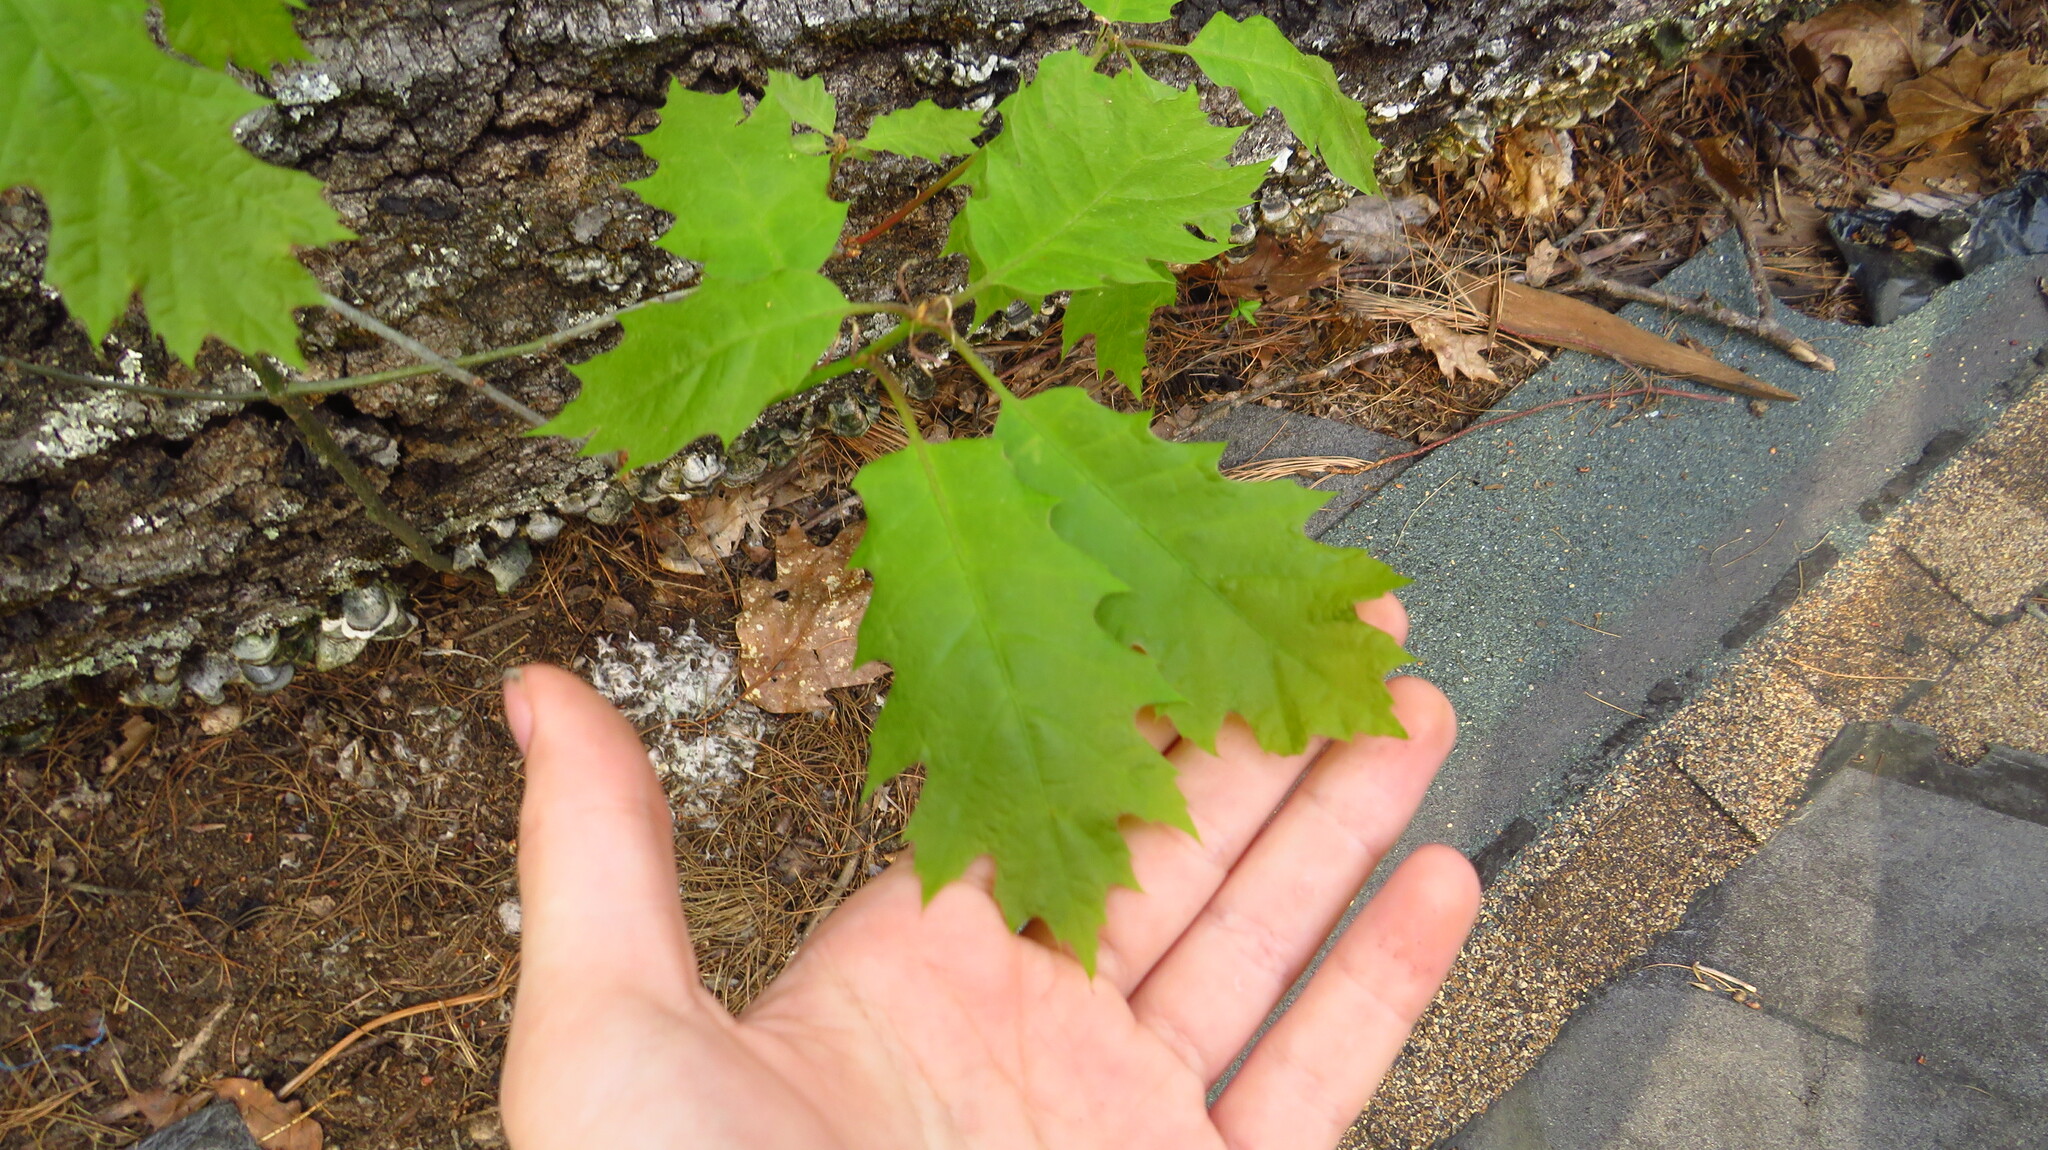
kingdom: Plantae
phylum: Tracheophyta
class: Magnoliopsida
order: Fagales
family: Fagaceae
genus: Quercus
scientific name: Quercus rubra
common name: Red oak
